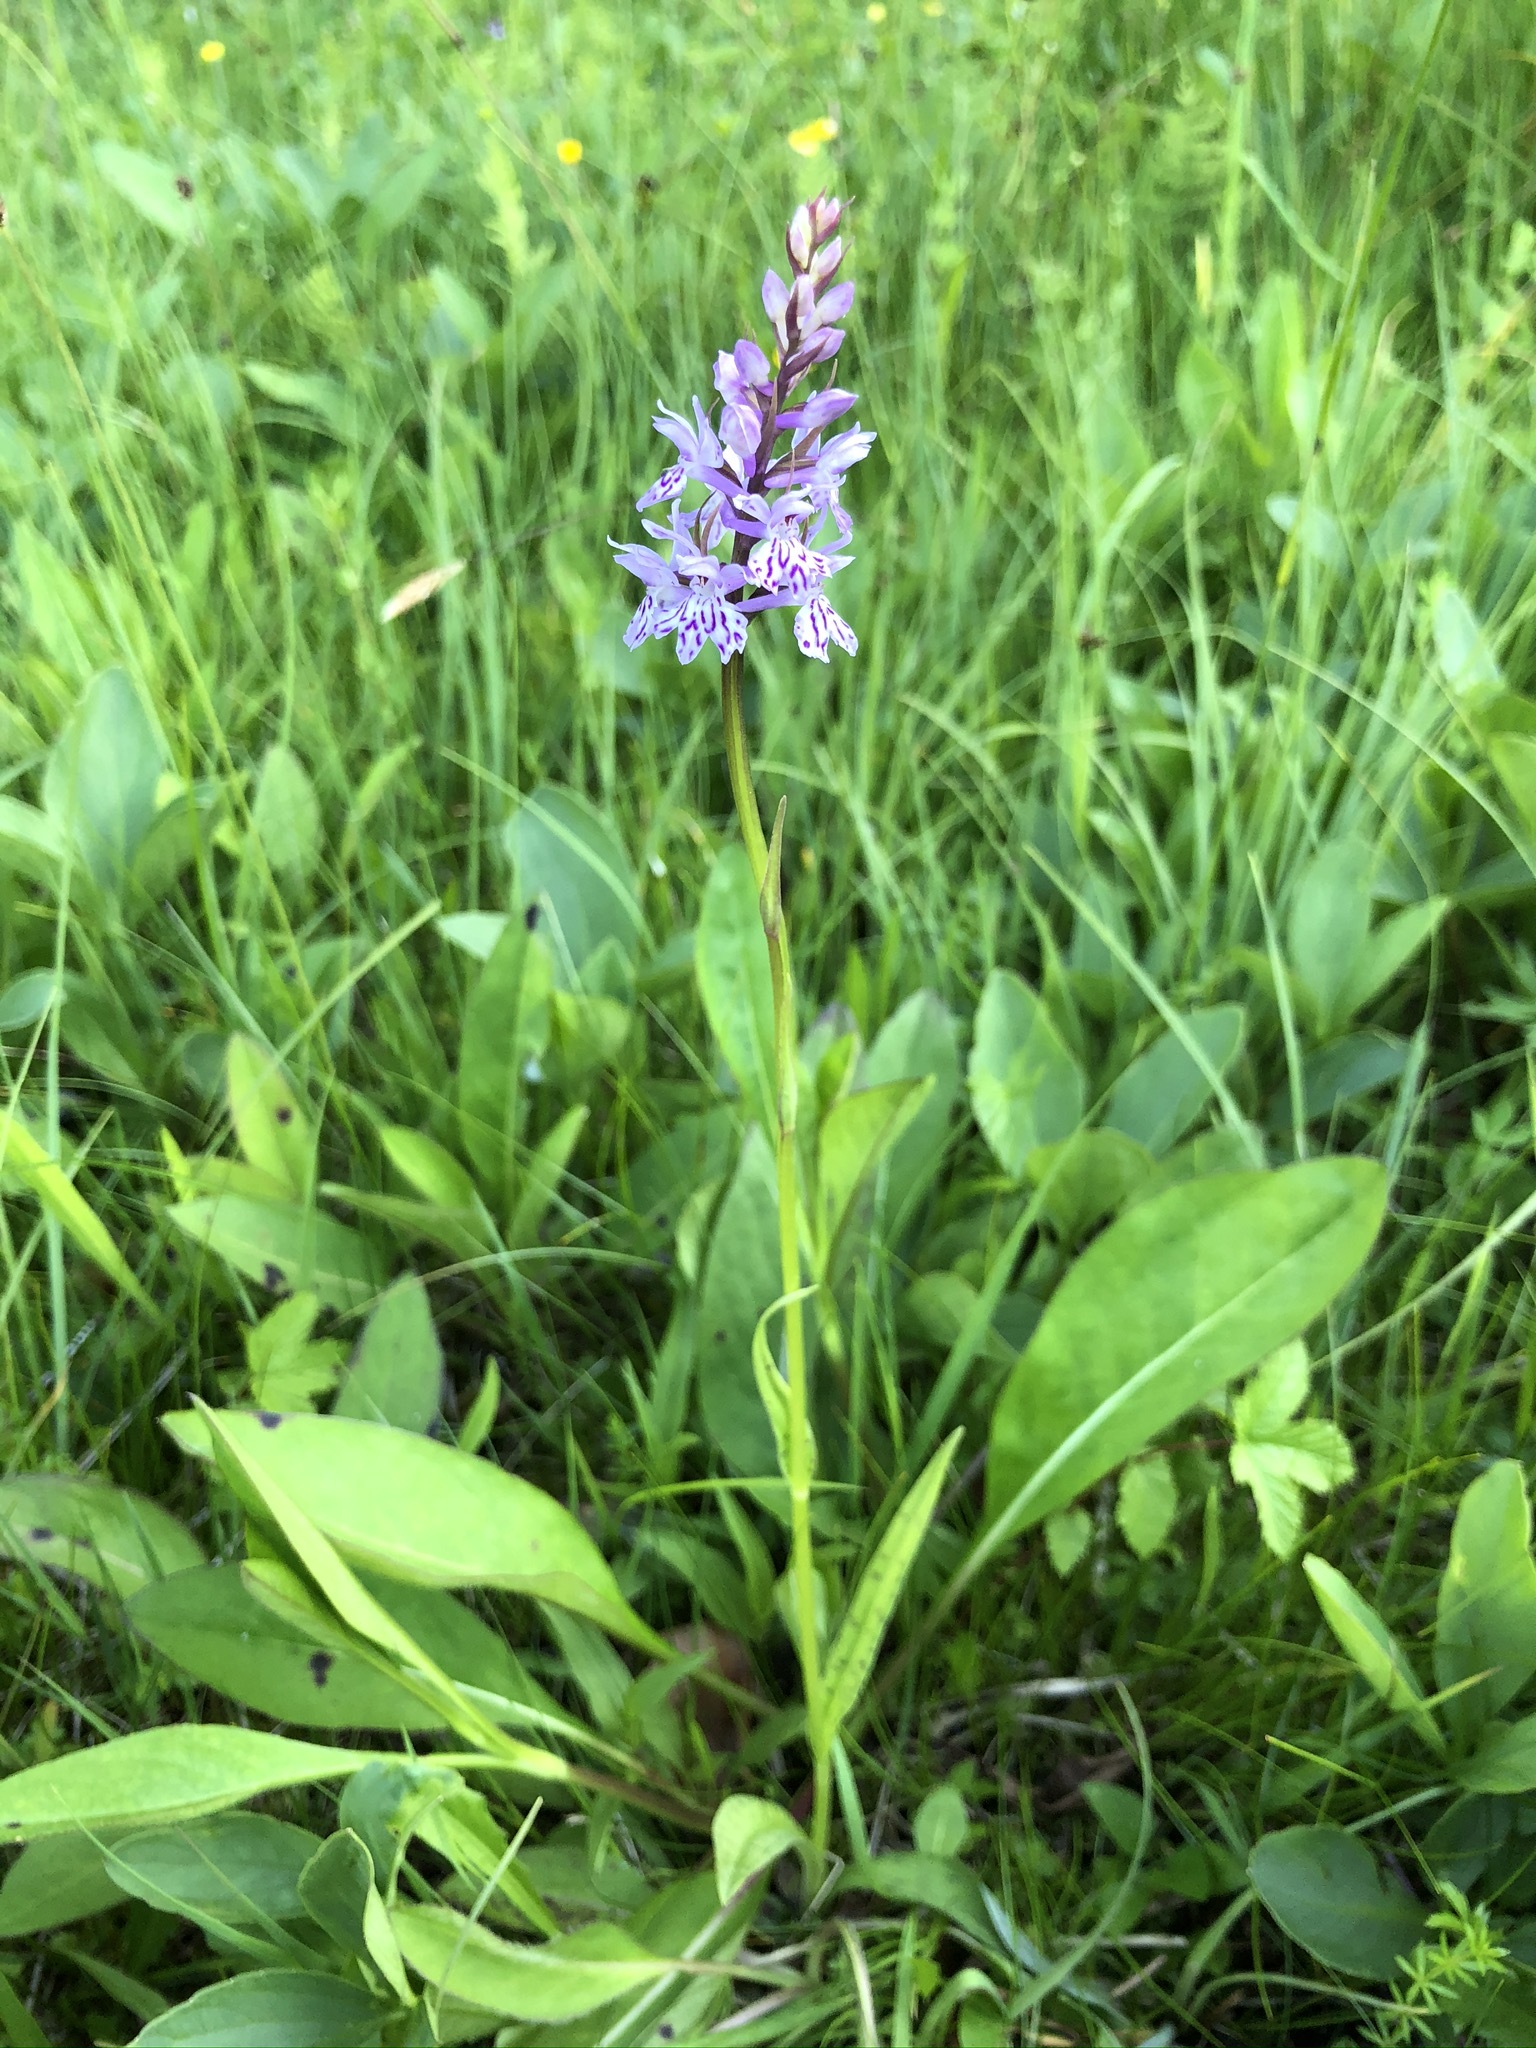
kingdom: Plantae
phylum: Tracheophyta
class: Liliopsida
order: Asparagales
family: Orchidaceae
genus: Dactylorhiza
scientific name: Dactylorhiza maculata
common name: Heath spotted-orchid
